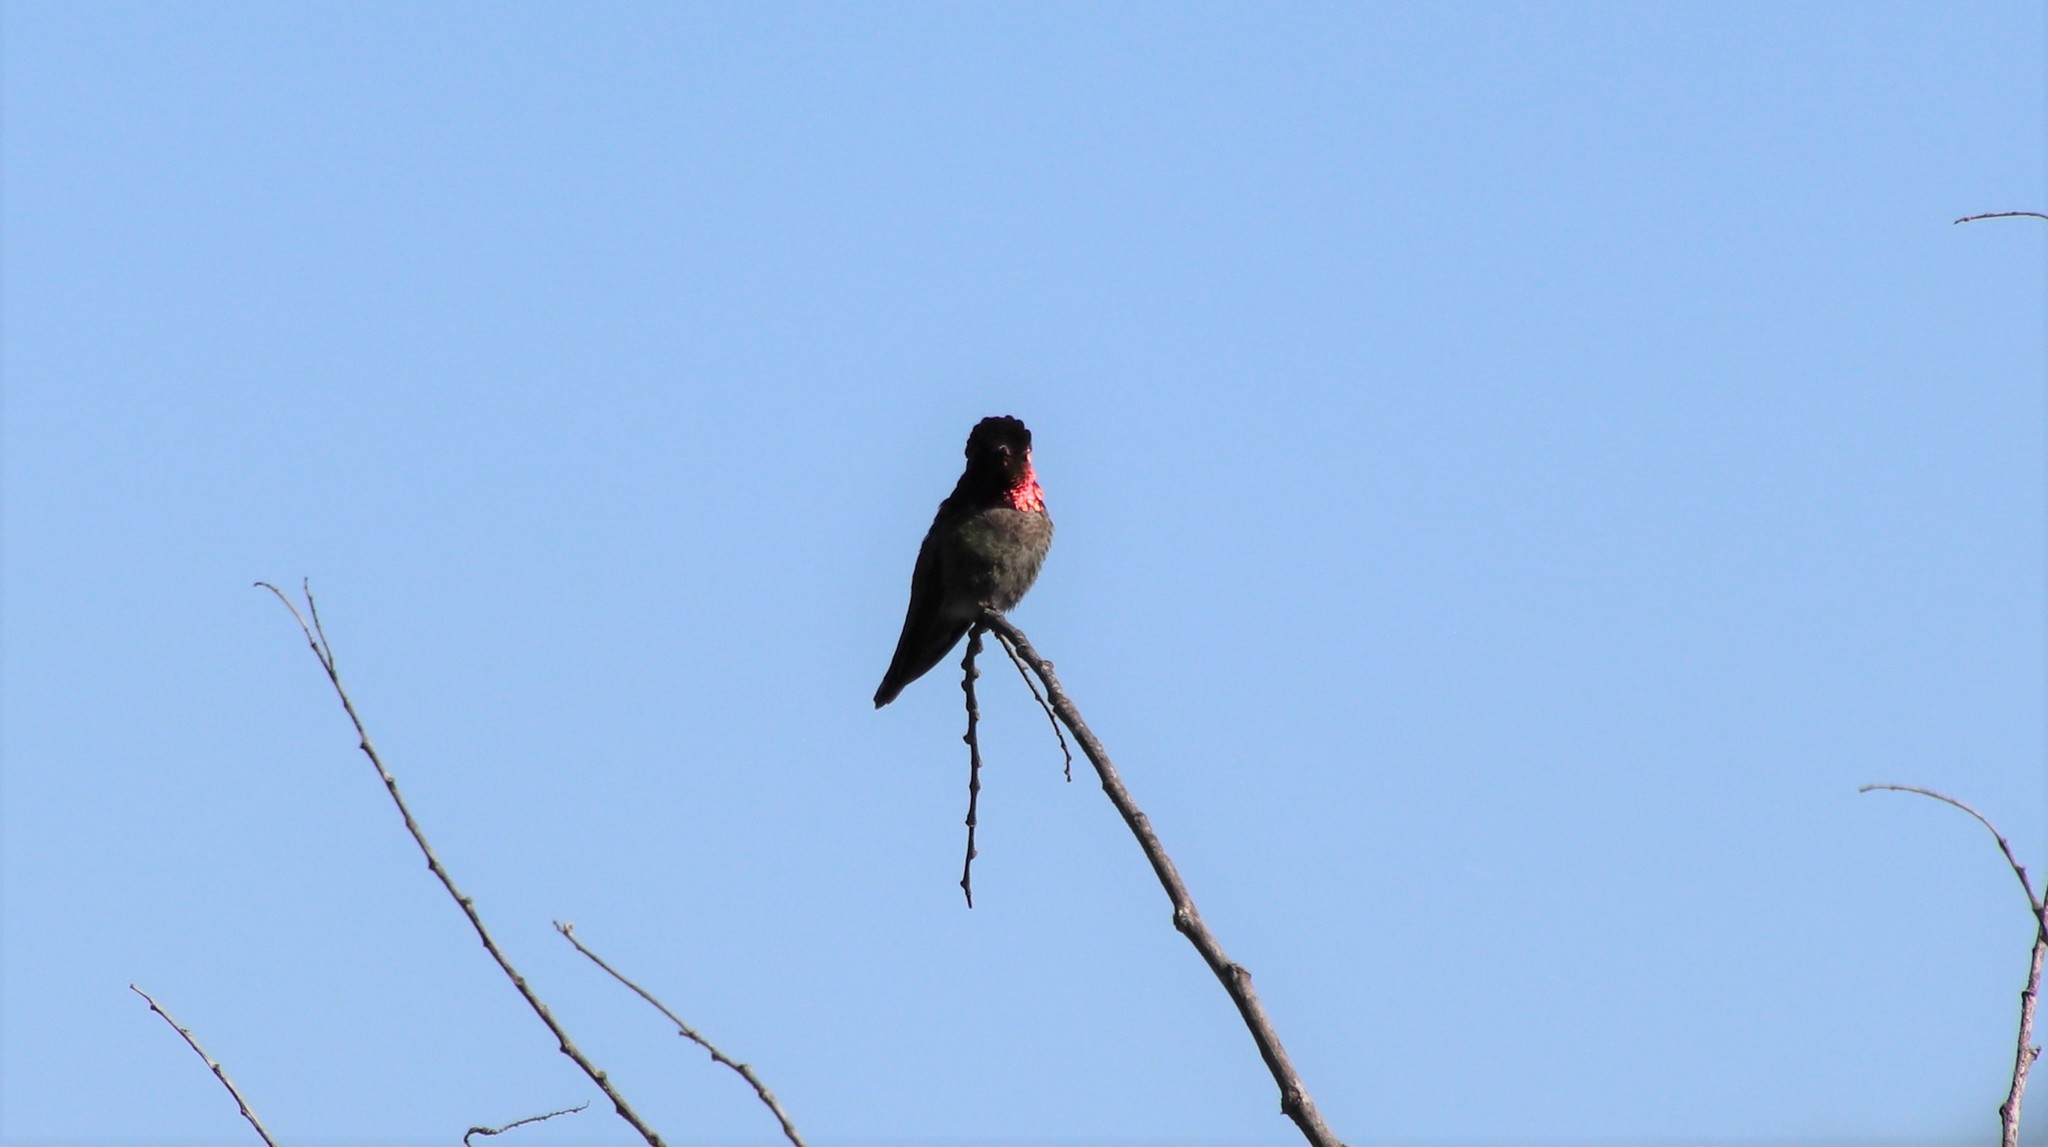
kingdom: Animalia
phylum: Chordata
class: Aves
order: Apodiformes
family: Trochilidae
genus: Calypte
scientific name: Calypte anna
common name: Anna's hummingbird
